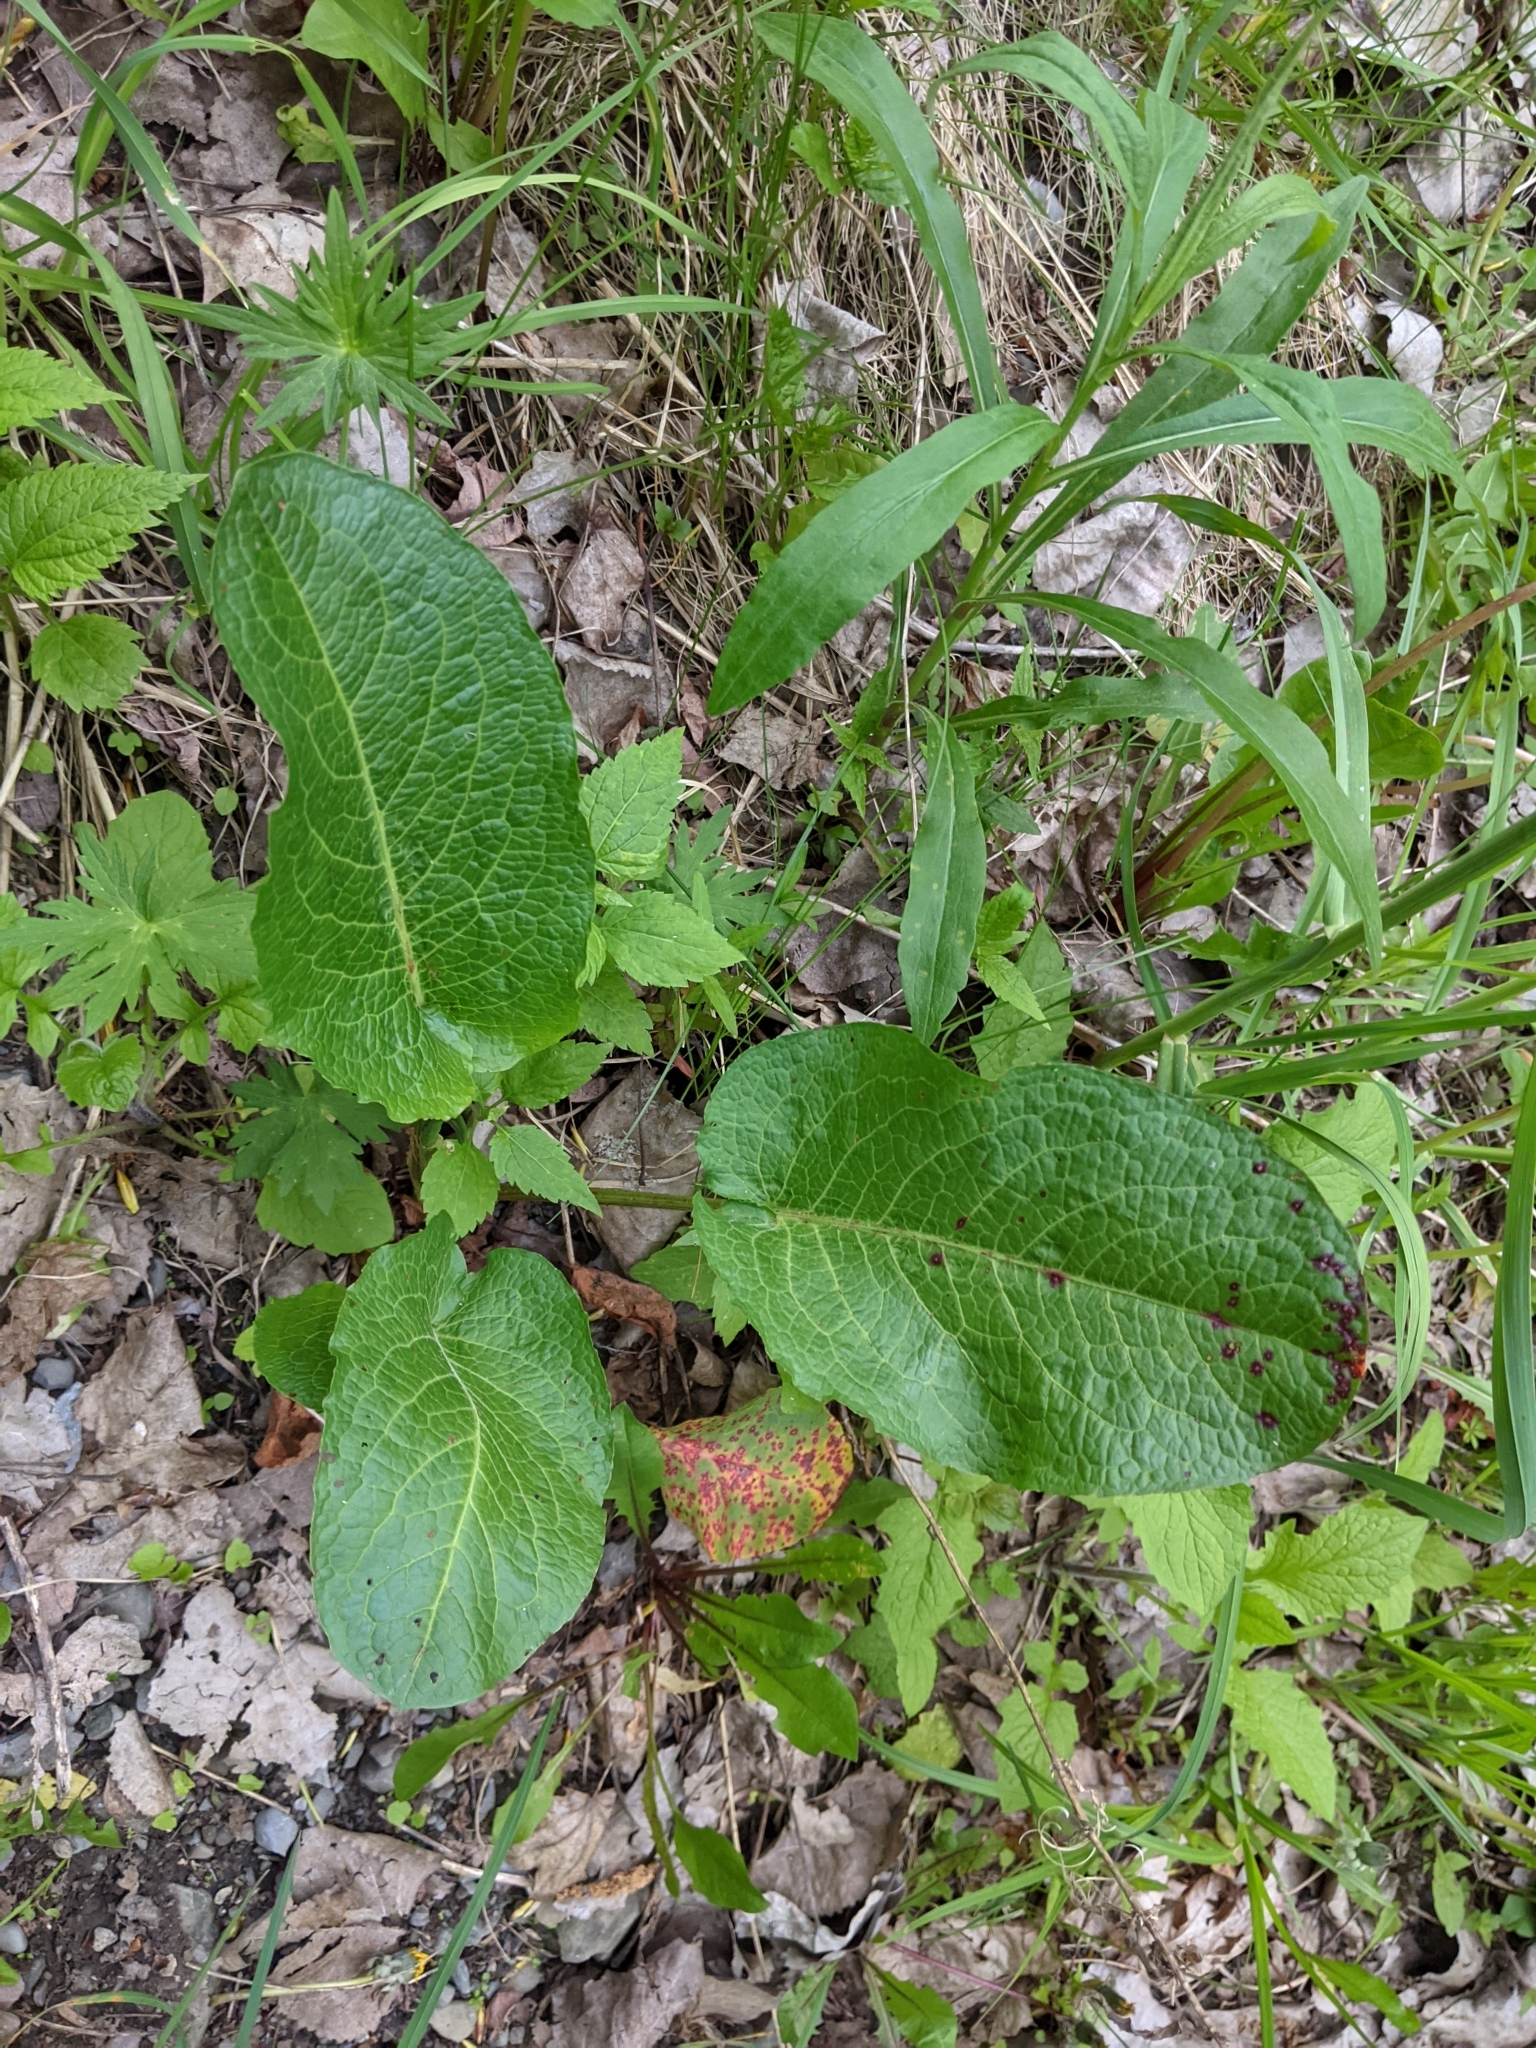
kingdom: Fungi
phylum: Ascomycota
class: Dothideomycetes
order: Mycosphaerellales
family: Mycosphaerellaceae
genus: Ramularia
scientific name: Ramularia rubella
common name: Red dock spot
